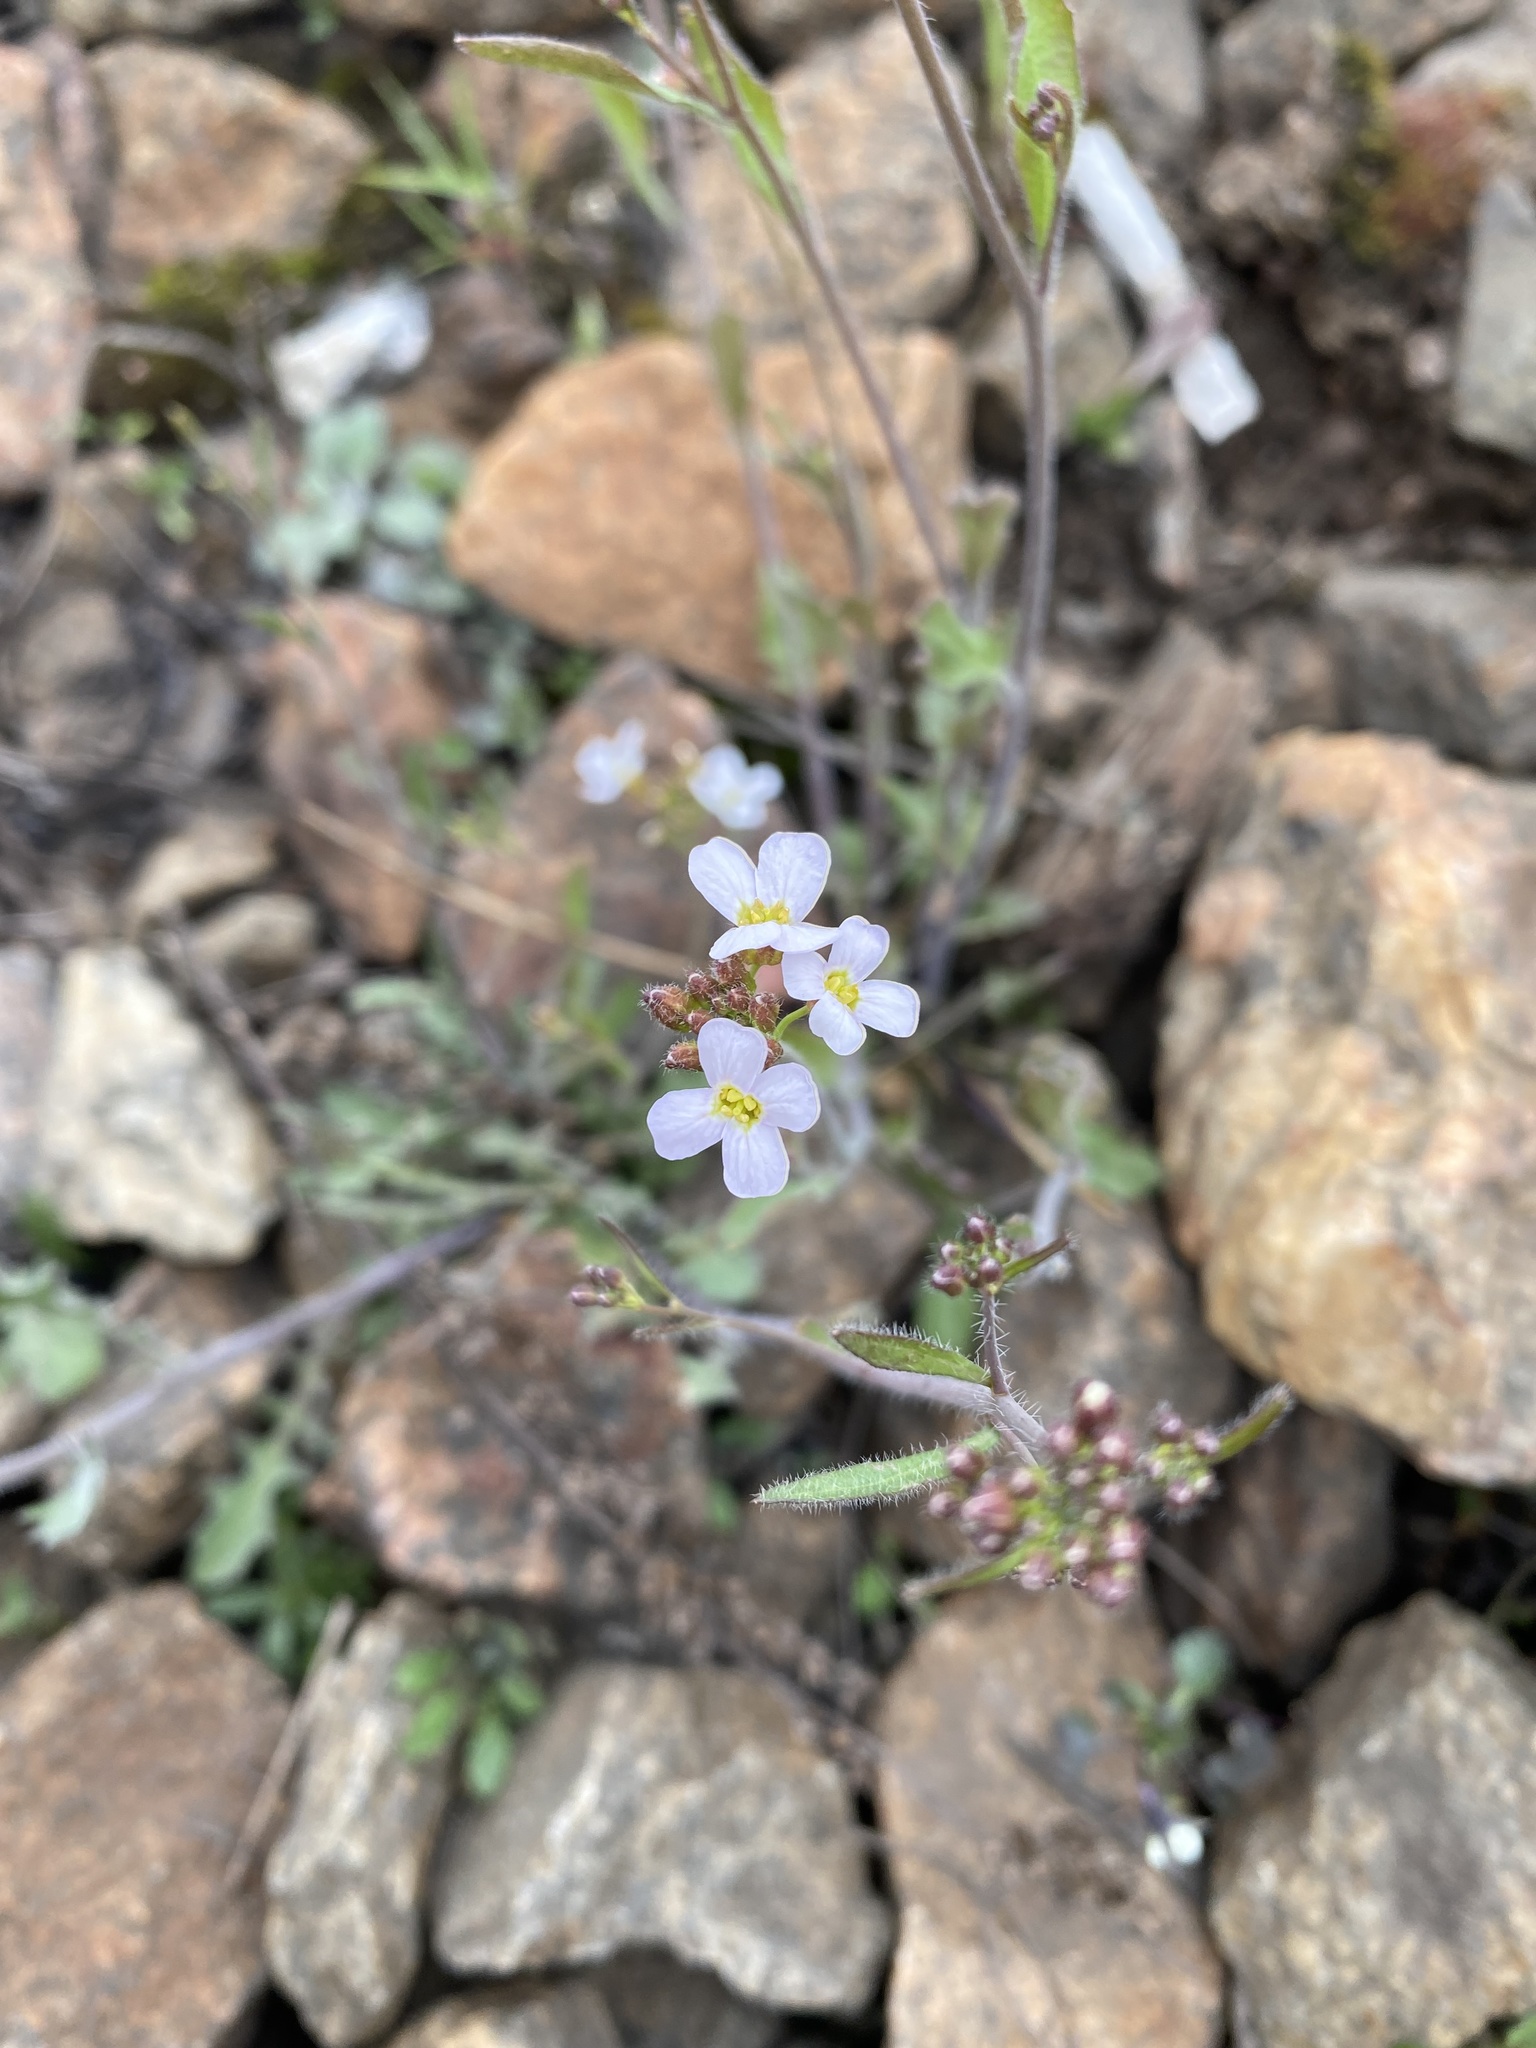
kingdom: Plantae
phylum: Tracheophyta
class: Magnoliopsida
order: Brassicales
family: Brassicaceae
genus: Arabidopsis
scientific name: Arabidopsis arenosa
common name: Sand rock-cress
